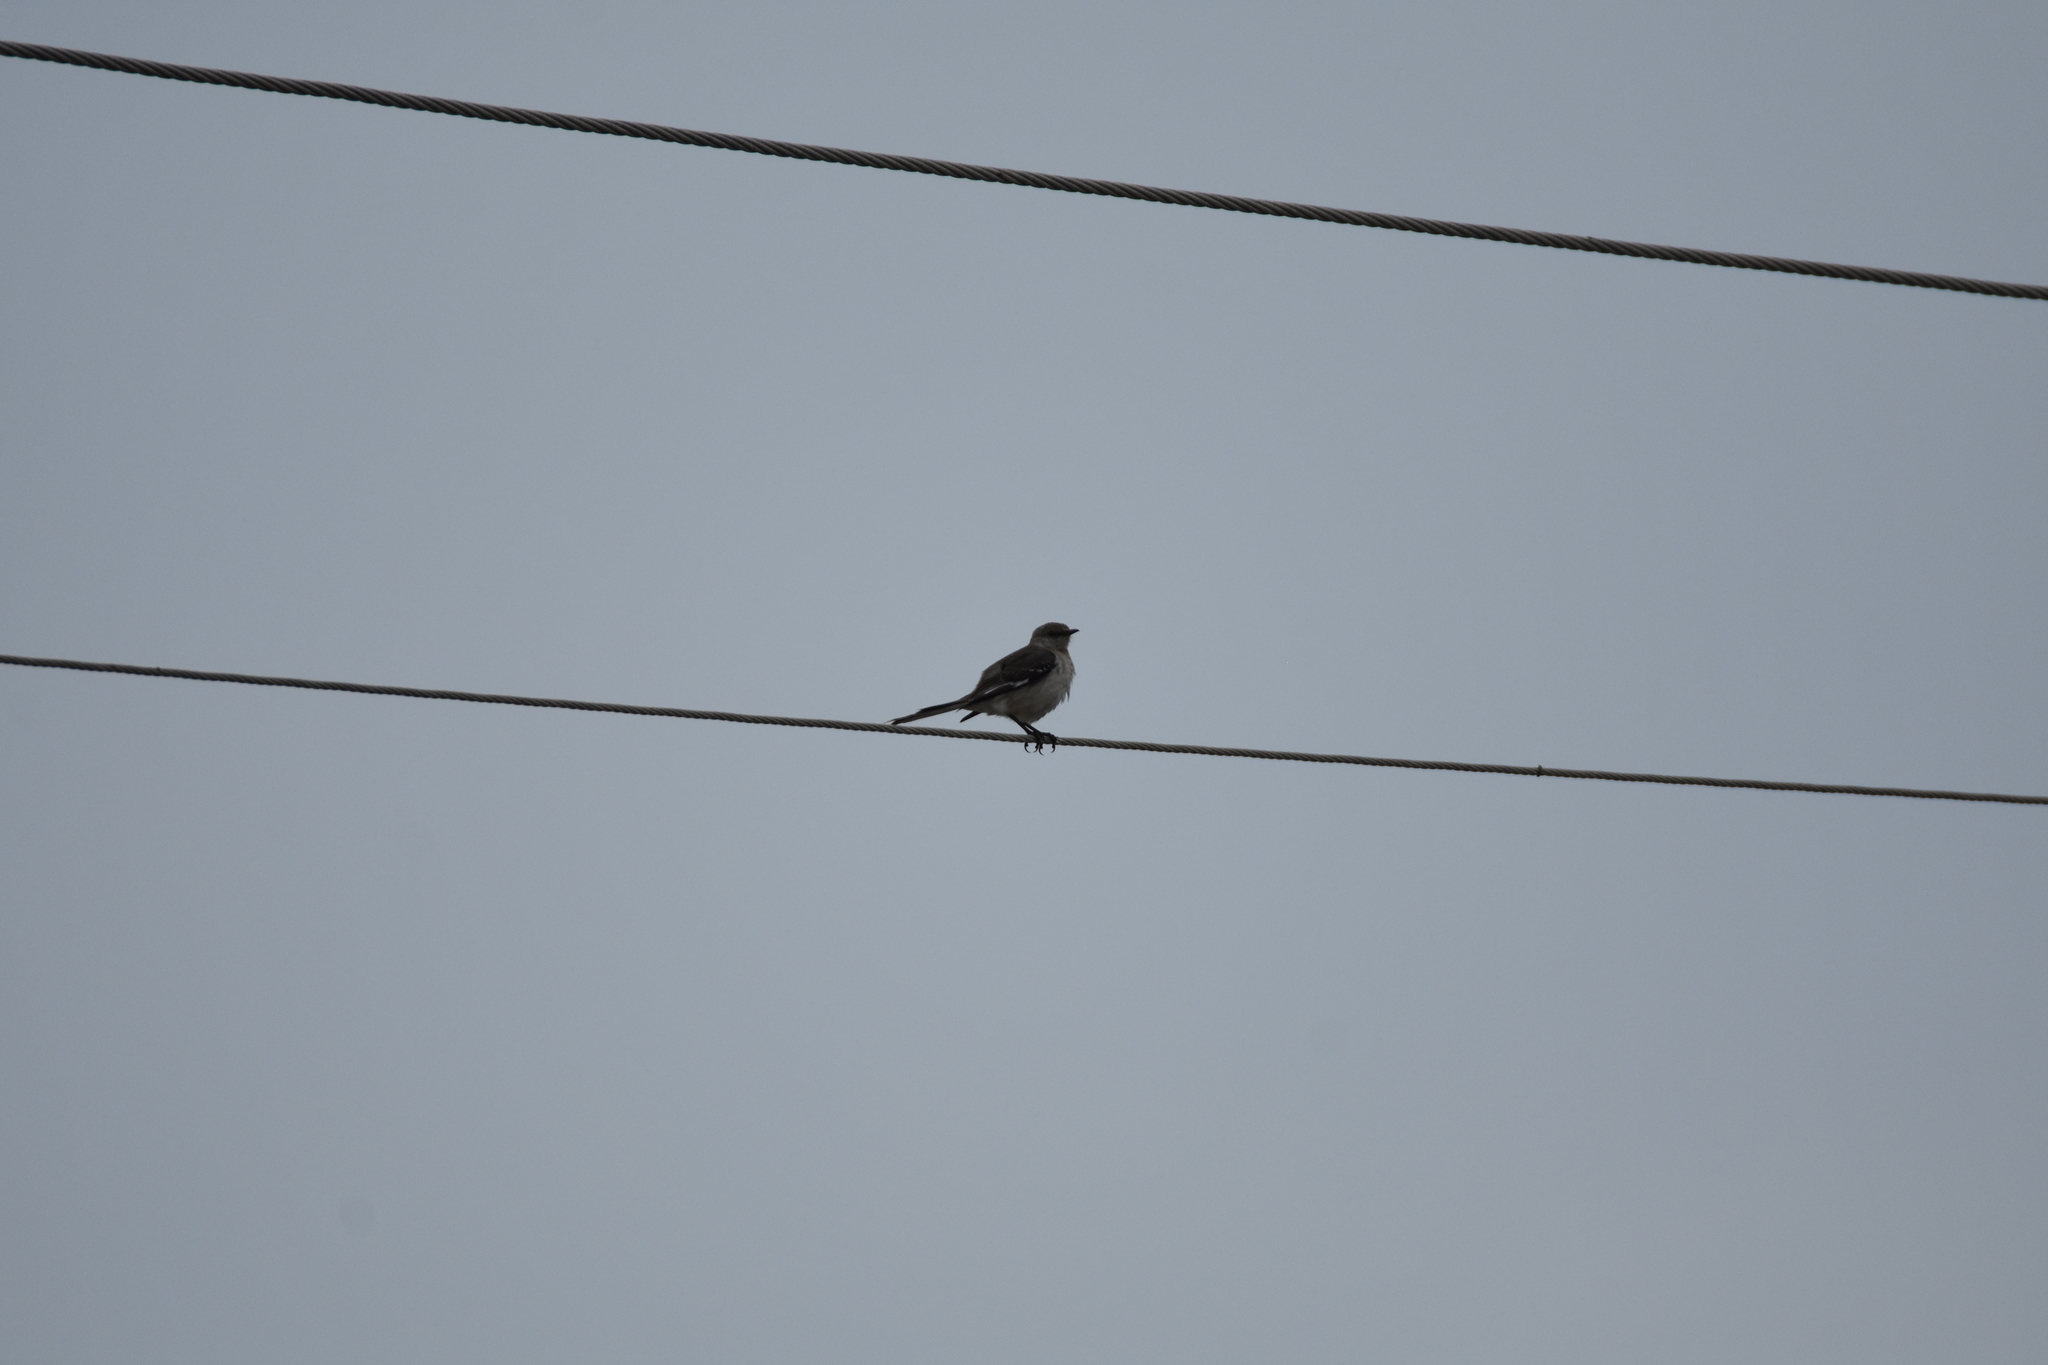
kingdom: Animalia
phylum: Chordata
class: Aves
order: Passeriformes
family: Mimidae
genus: Mimus
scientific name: Mimus polyglottos
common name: Northern mockingbird
